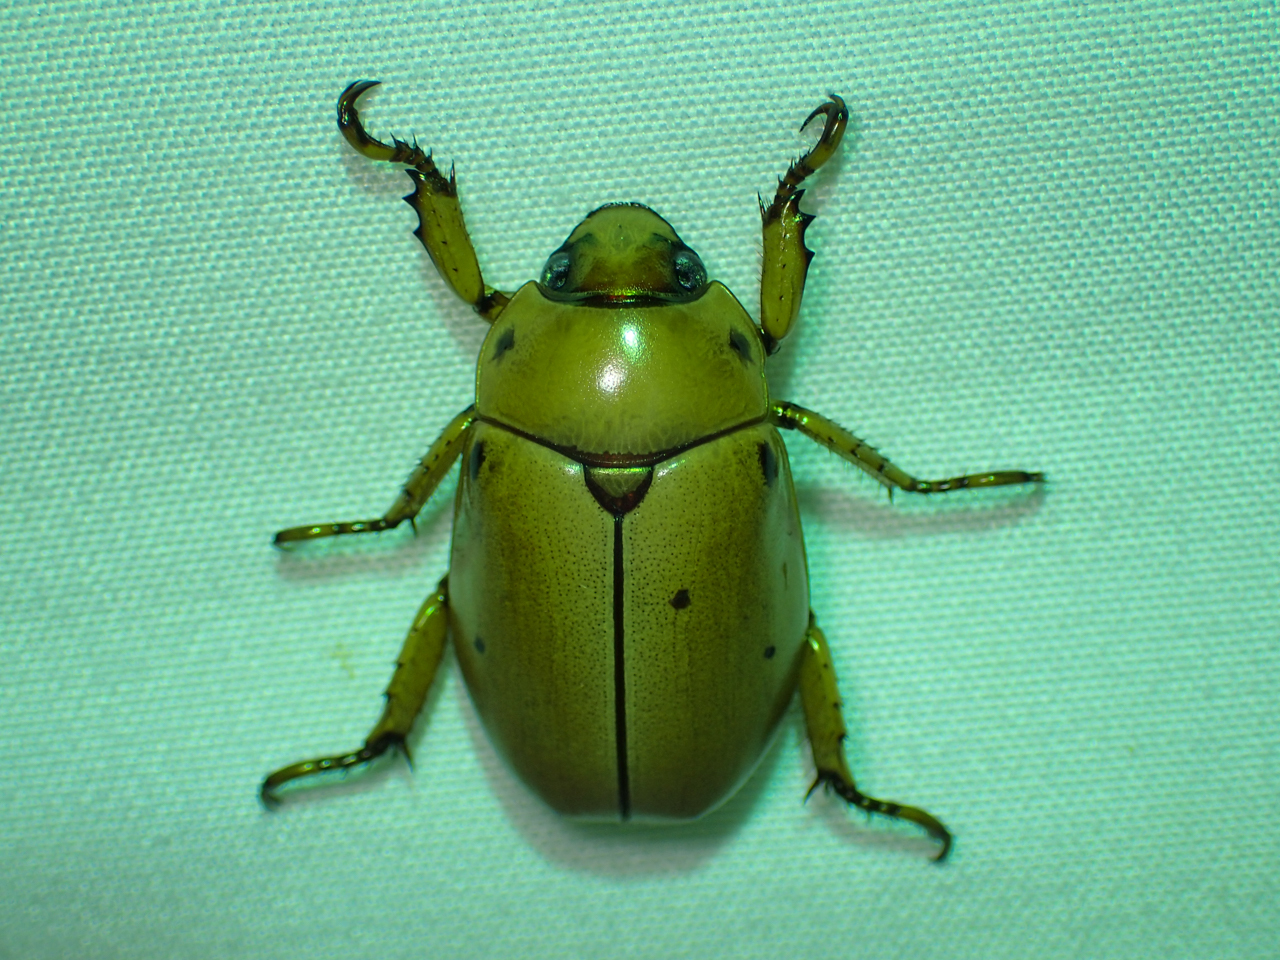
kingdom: Animalia
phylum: Arthropoda
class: Insecta
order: Coleoptera
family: Scarabaeidae
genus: Pelidnota
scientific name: Pelidnota punctata
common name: Grapevine beetle
